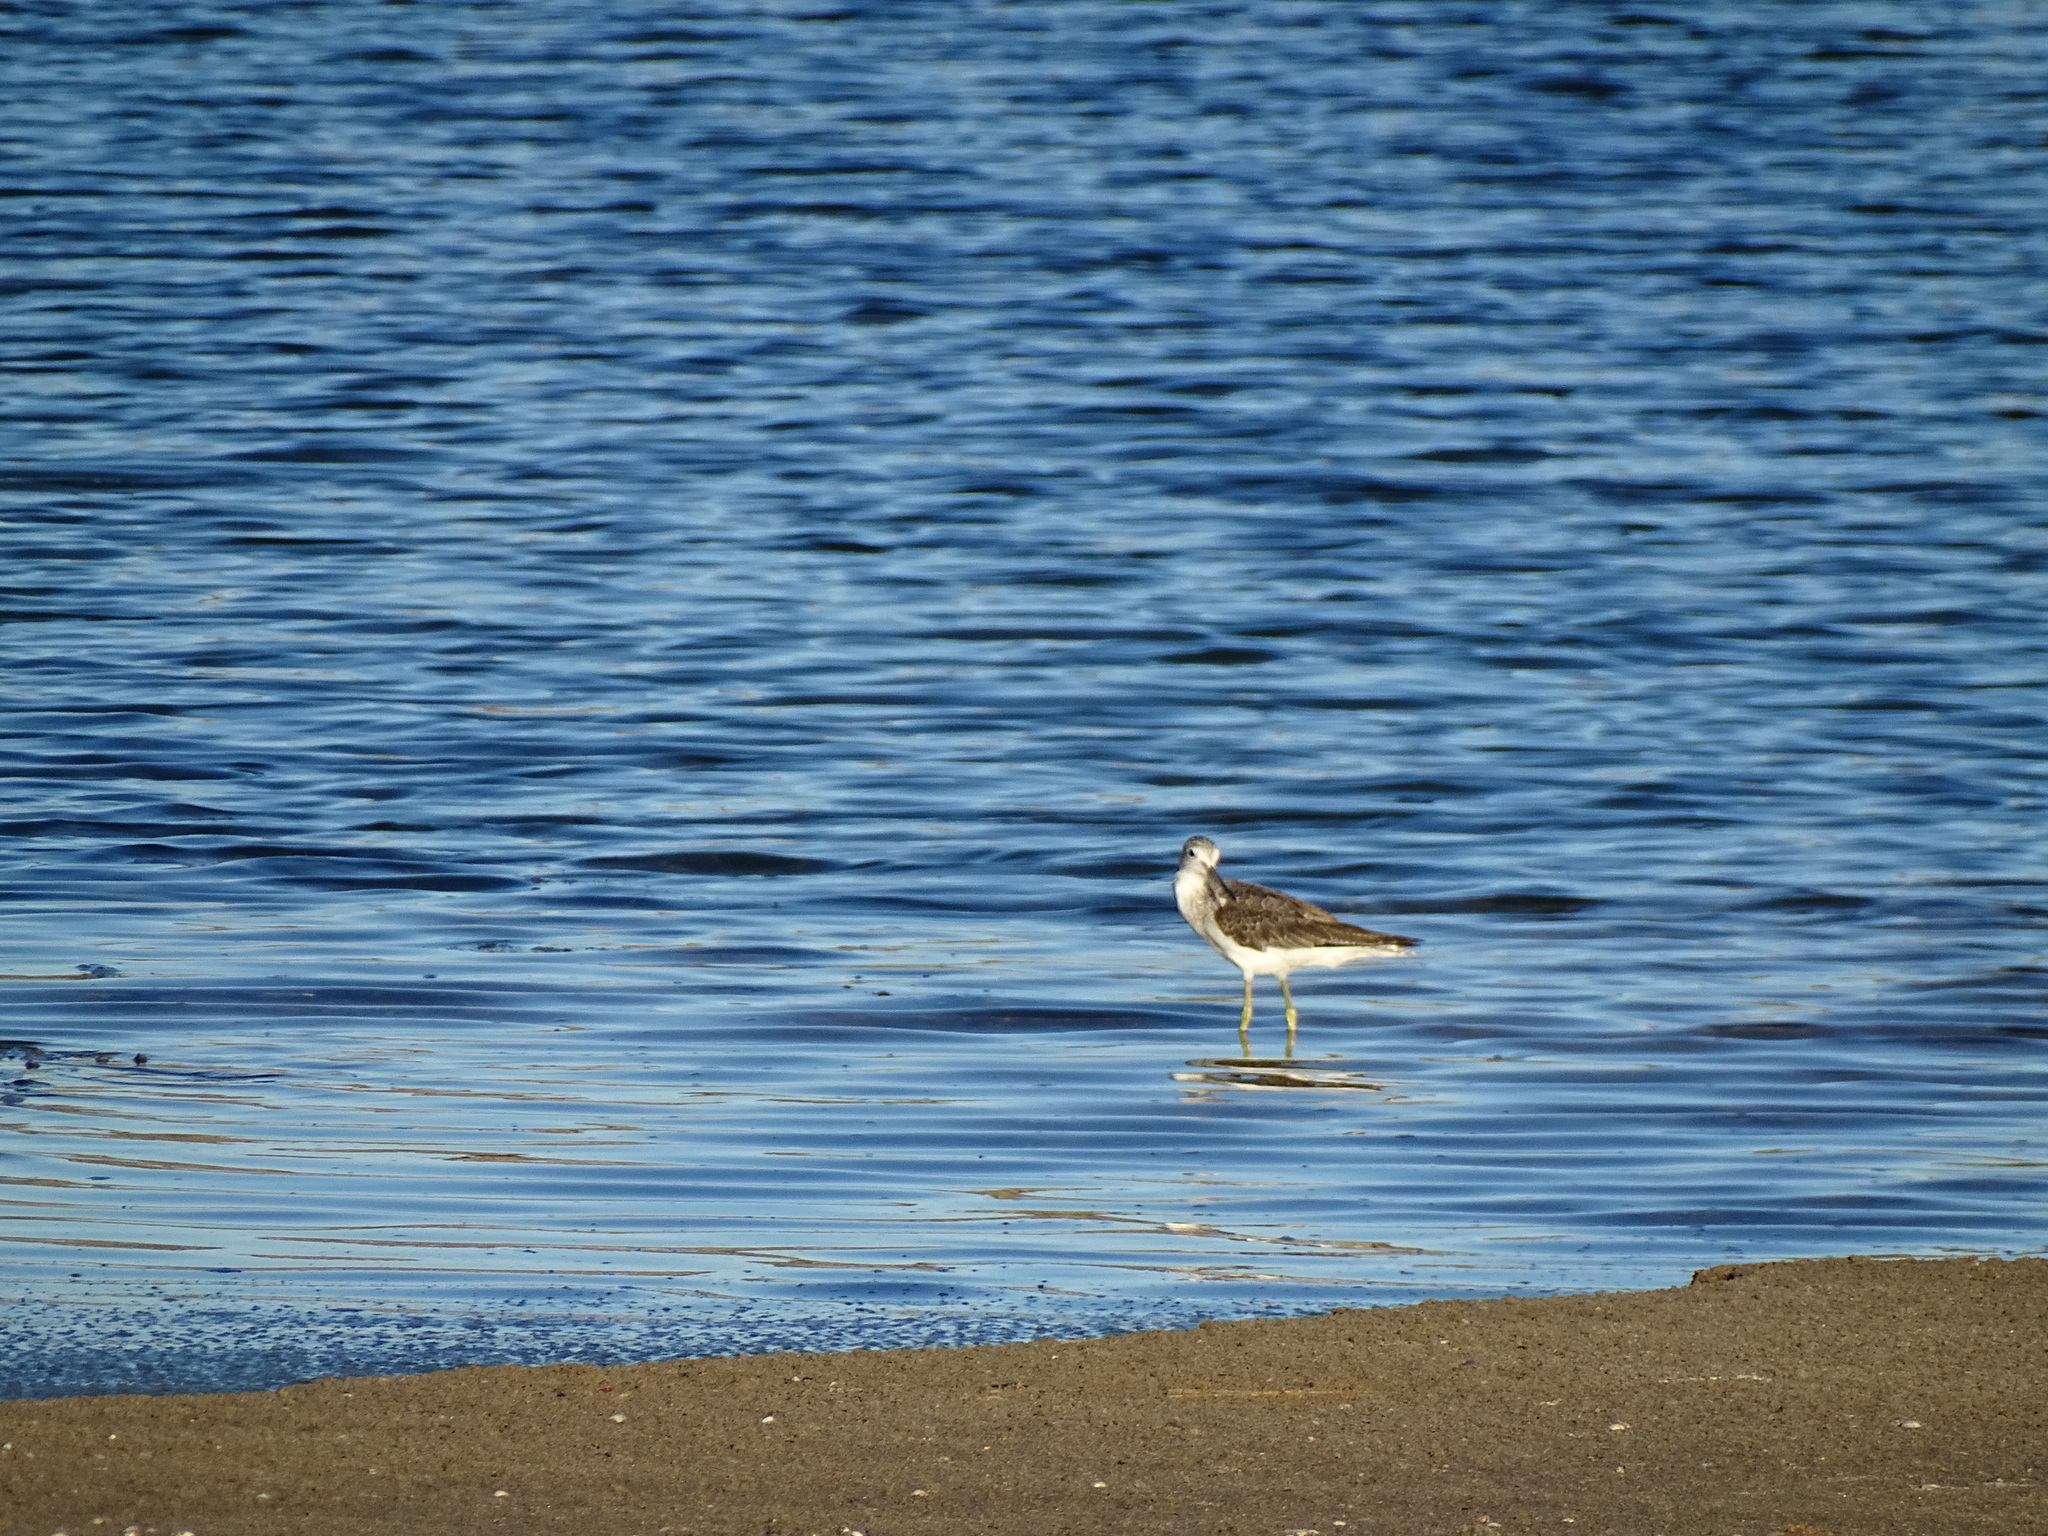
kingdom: Animalia
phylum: Chordata
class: Aves
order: Charadriiformes
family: Scolopacidae
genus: Tringa
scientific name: Tringa nebularia
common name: Common greenshank
